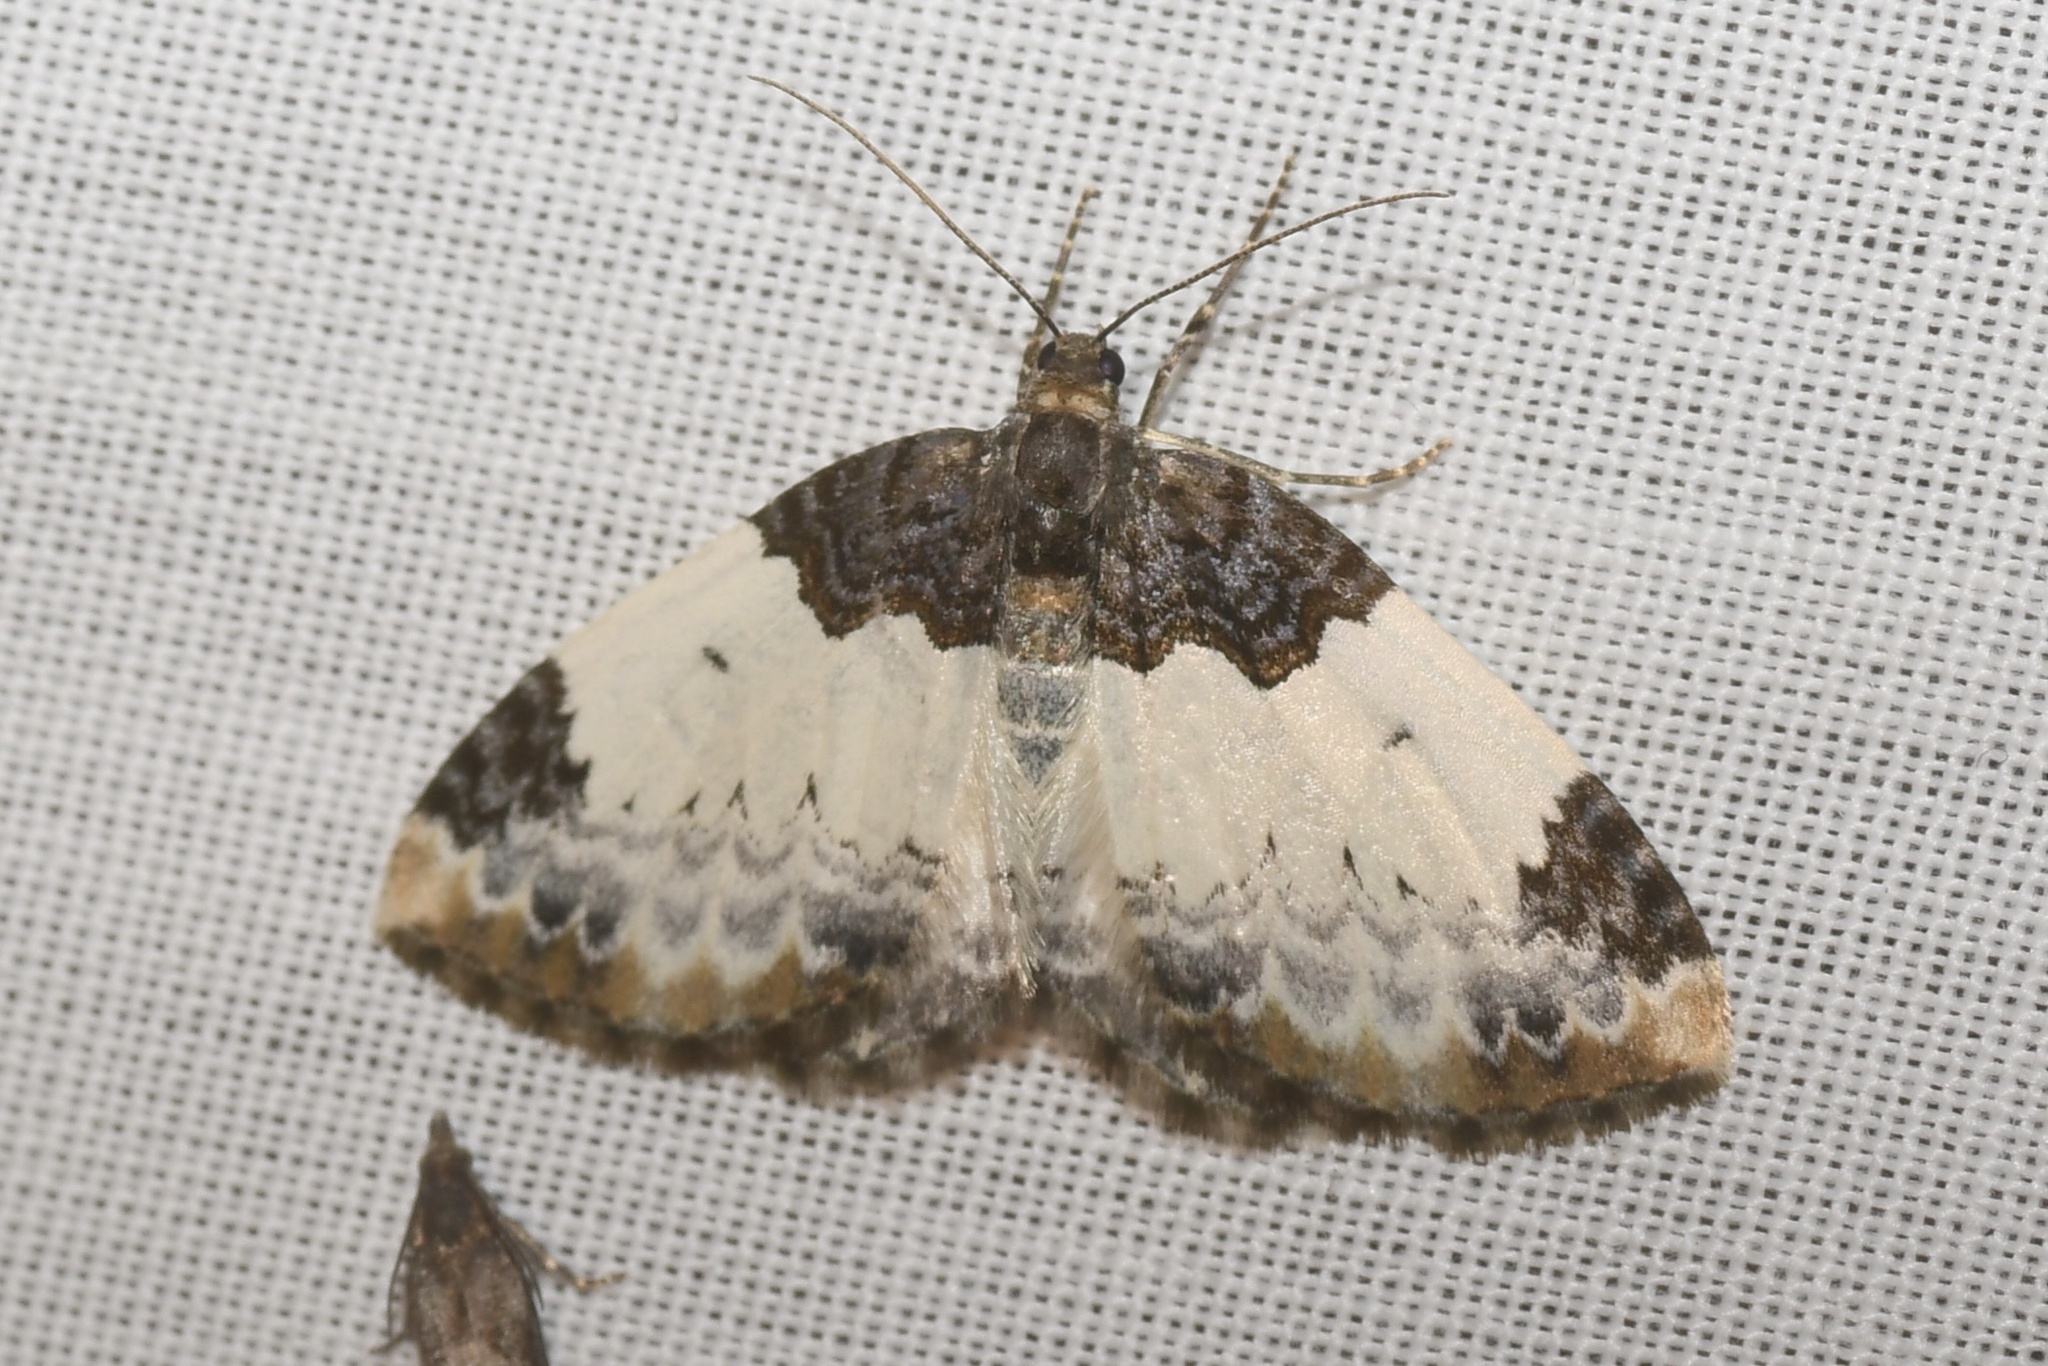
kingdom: Animalia
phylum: Arthropoda
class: Insecta
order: Lepidoptera
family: Geometridae
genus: Mesoleuca
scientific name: Mesoleuca ruficillata
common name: White-ribboned carpet moth
